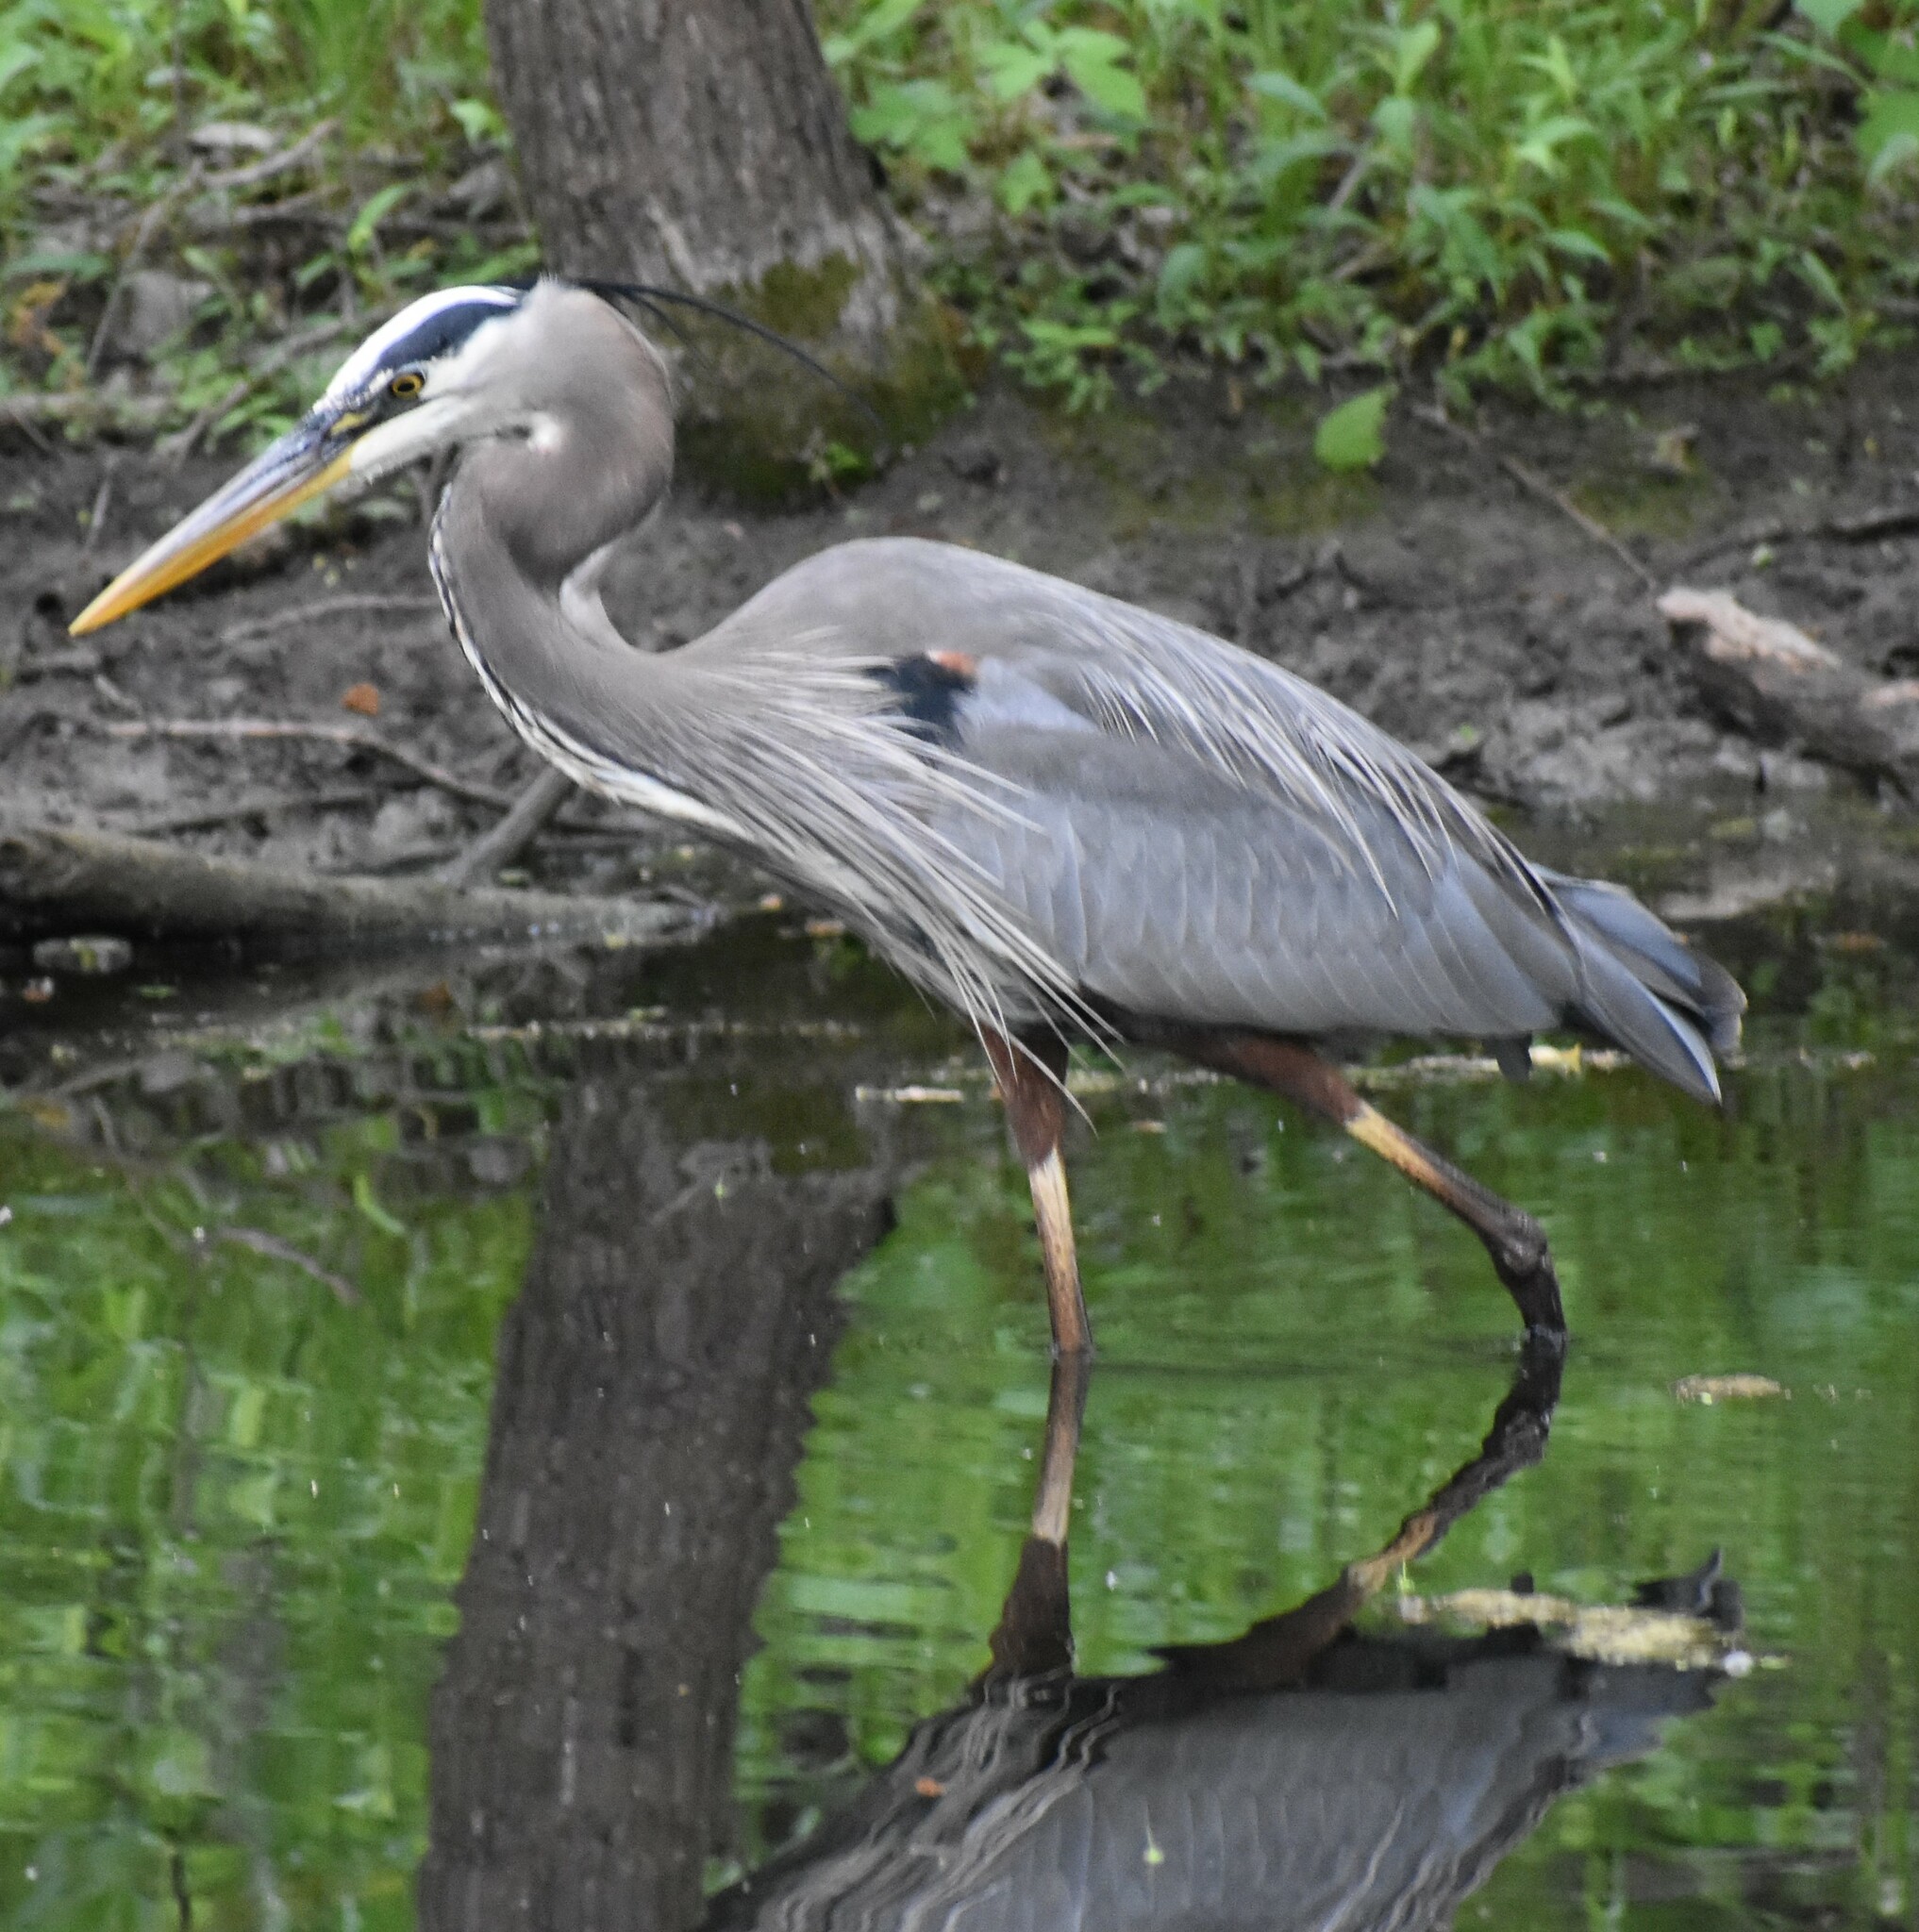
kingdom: Animalia
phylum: Chordata
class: Aves
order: Pelecaniformes
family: Ardeidae
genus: Ardea
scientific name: Ardea herodias
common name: Great blue heron
